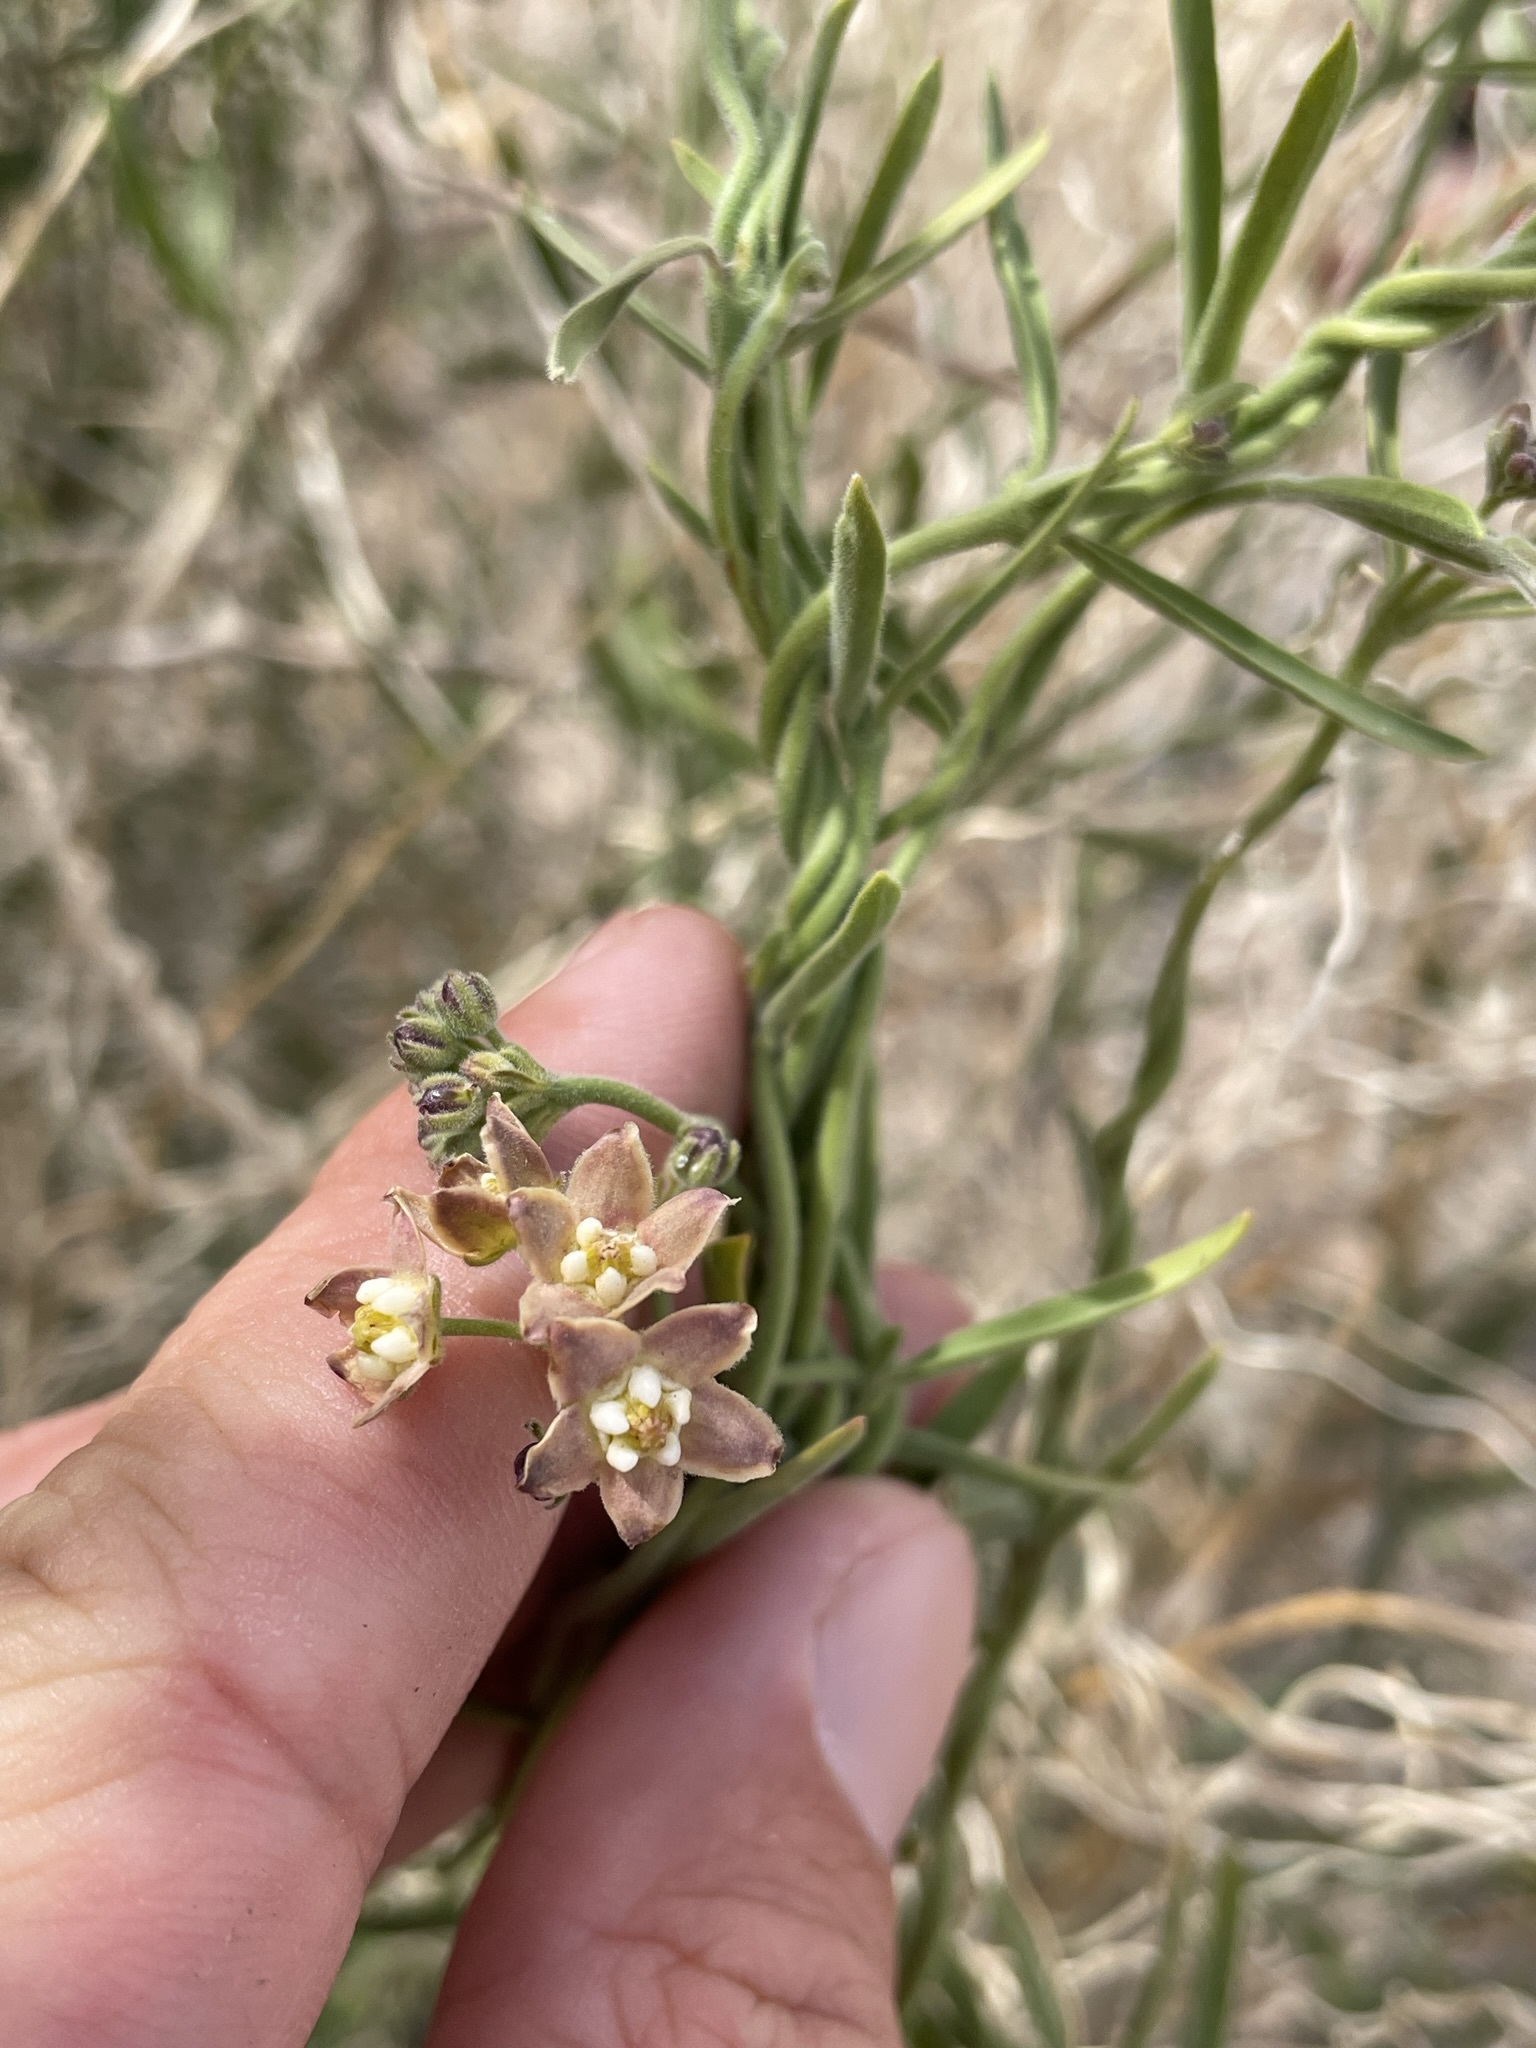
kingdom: Plantae
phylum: Tracheophyta
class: Magnoliopsida
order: Gentianales
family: Apocynaceae
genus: Funastrum
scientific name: Funastrum hirtellum
